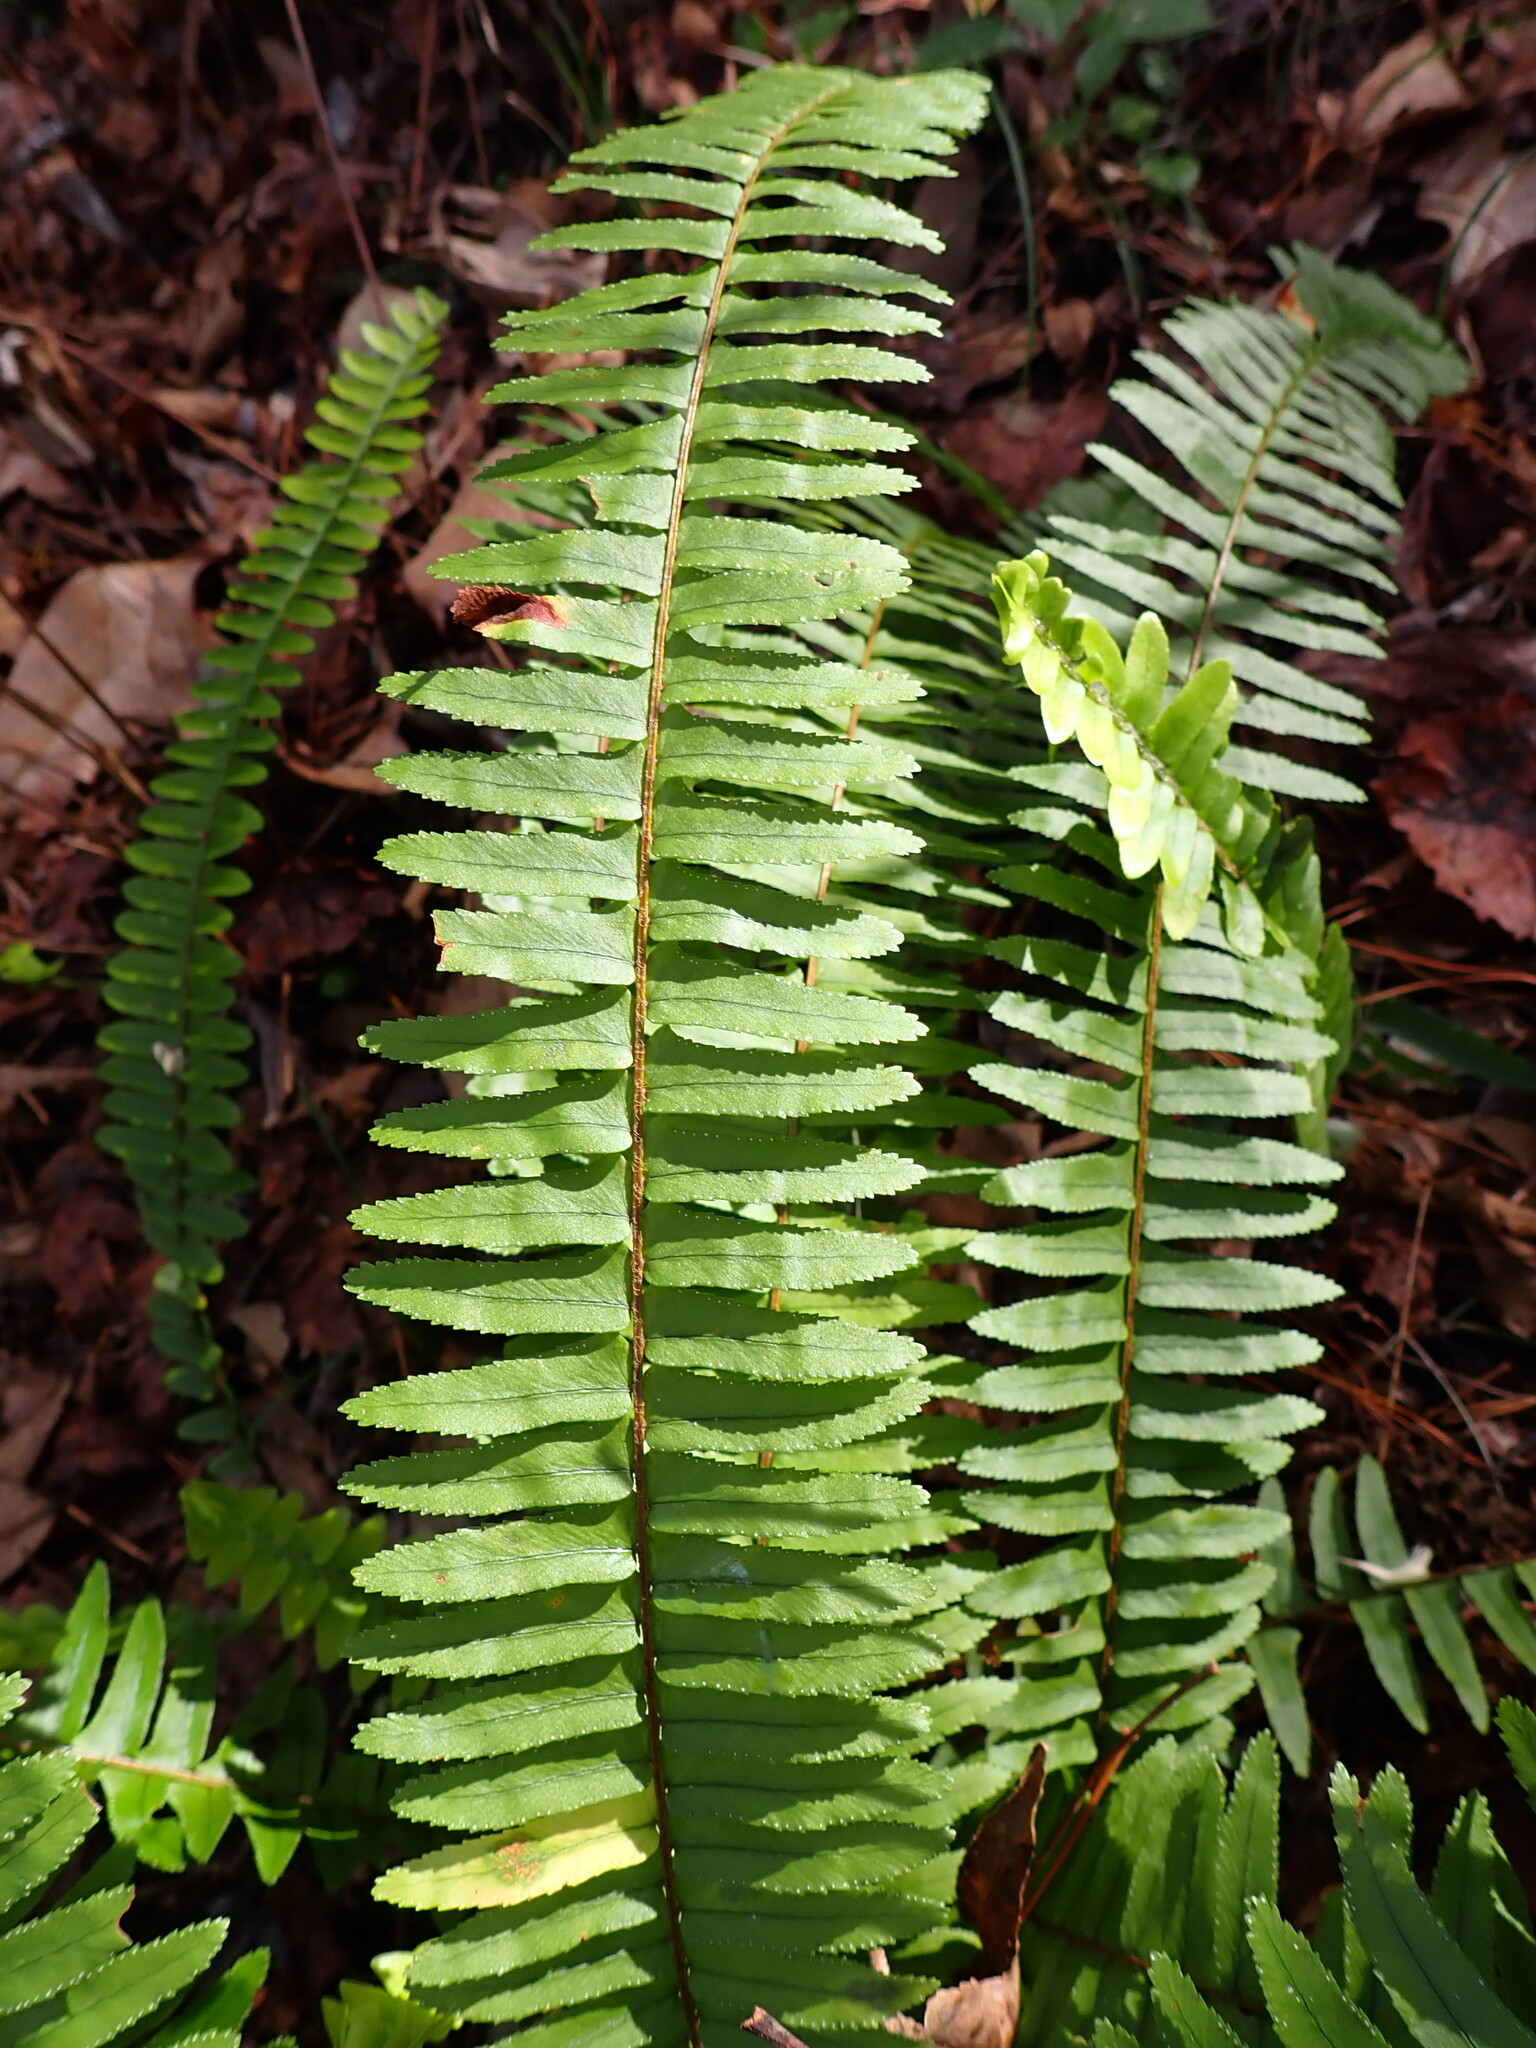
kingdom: Plantae
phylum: Tracheophyta
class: Polypodiopsida
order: Polypodiales
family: Nephrolepidaceae
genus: Nephrolepis
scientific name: Nephrolepis cordifolia
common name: Narrow swordfern
